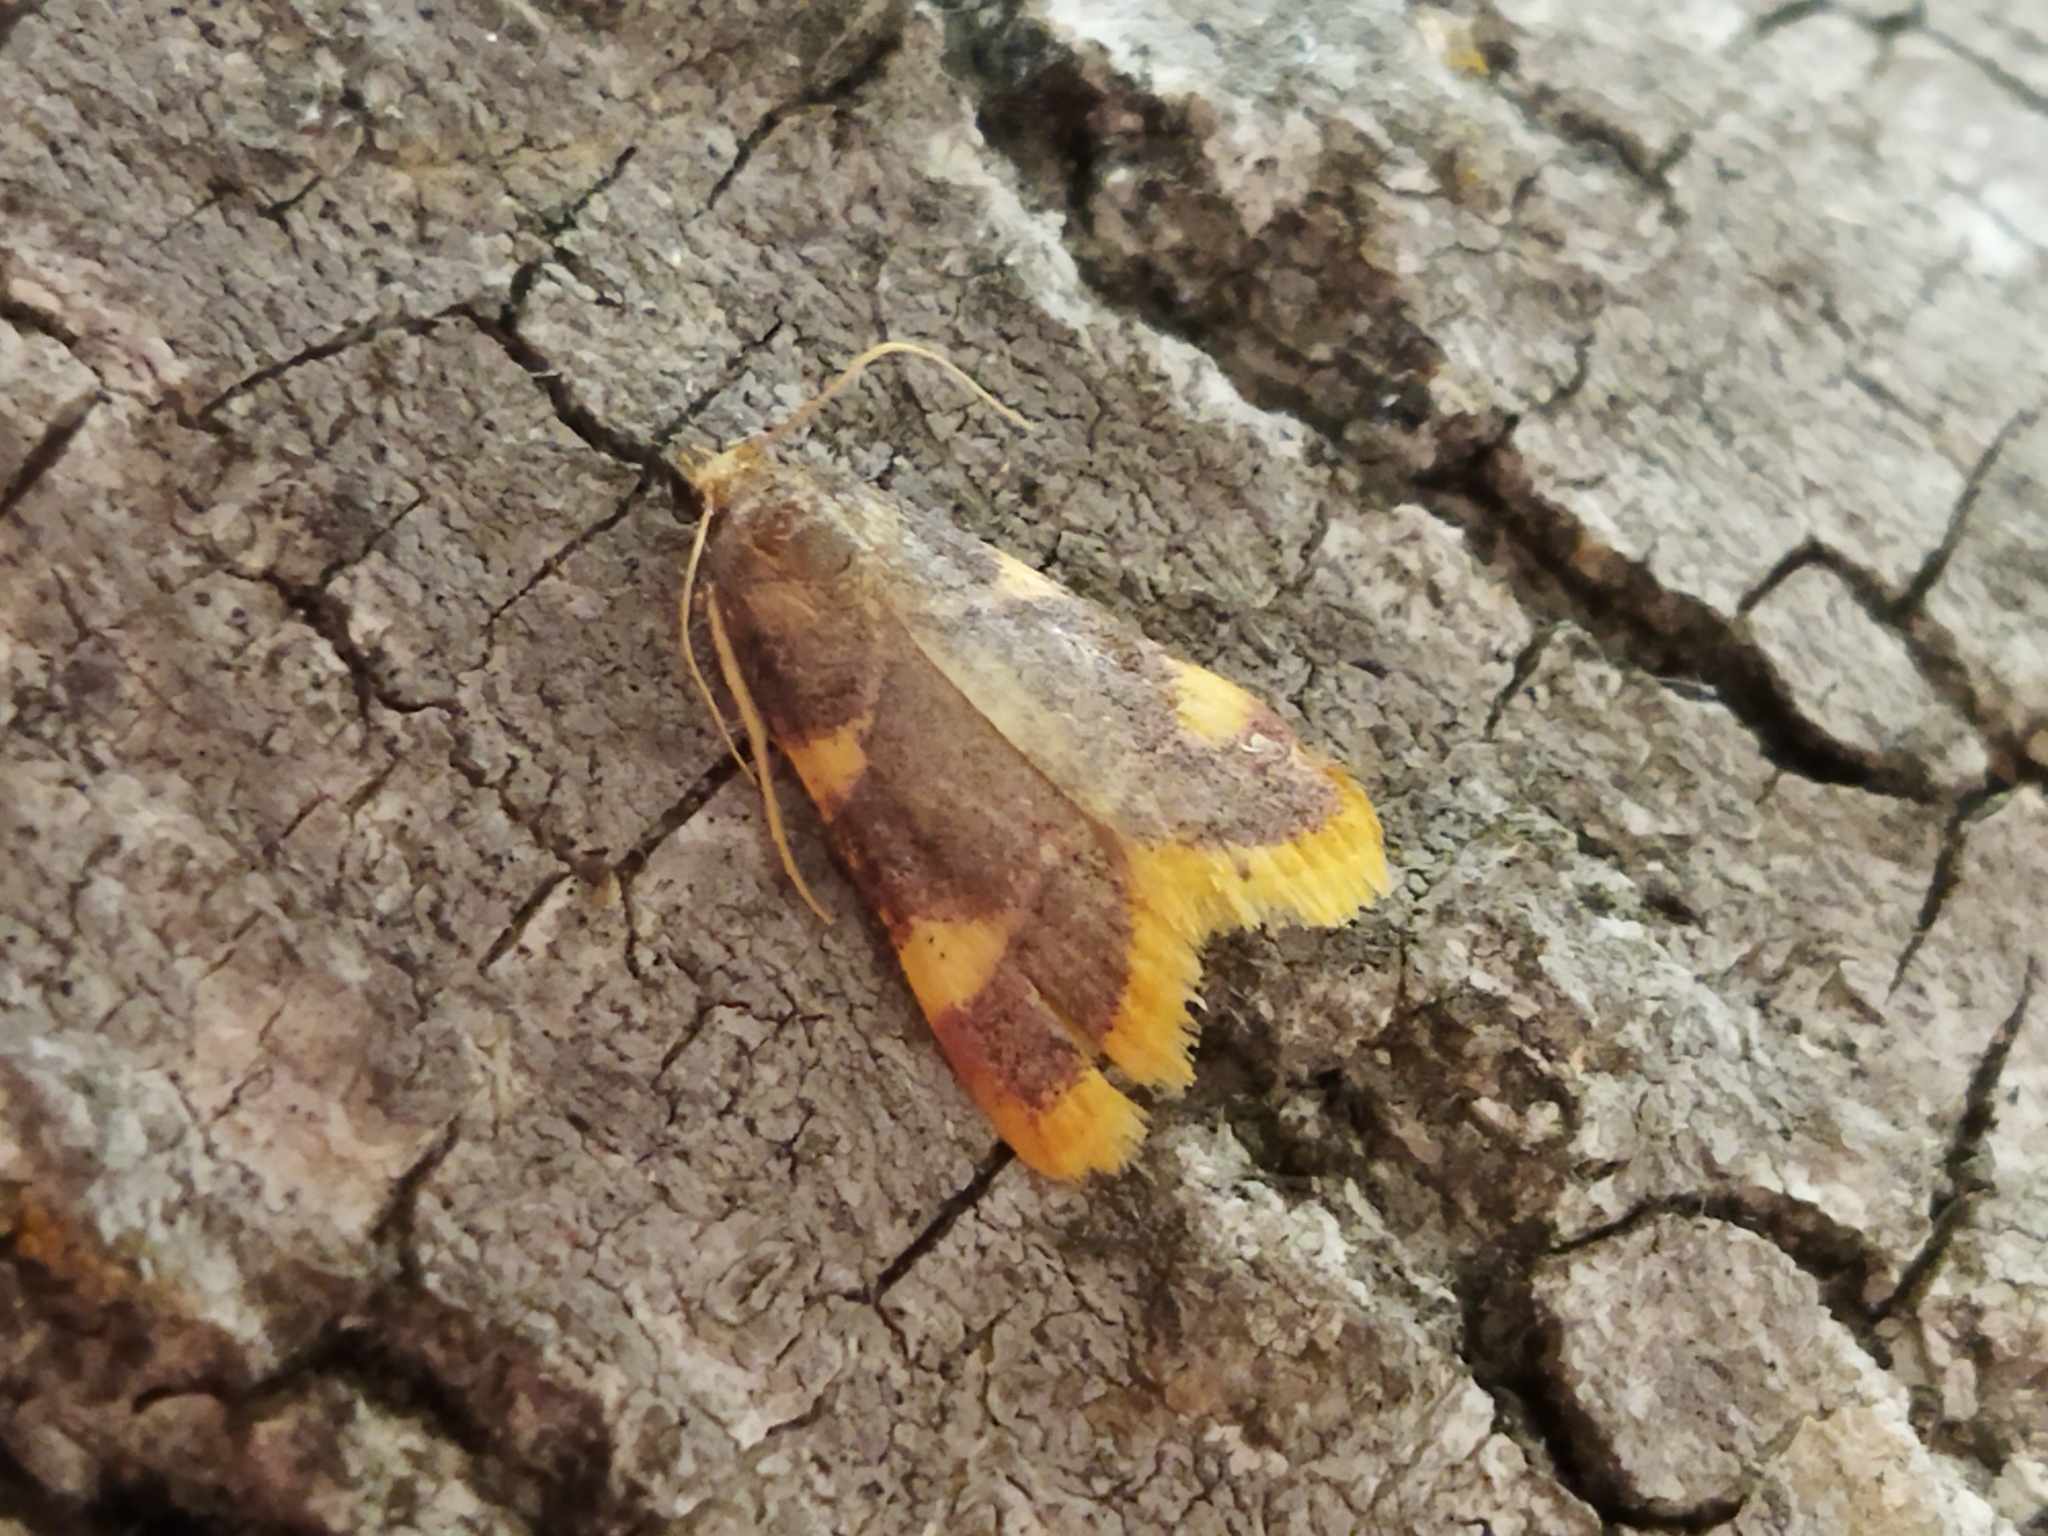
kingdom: Animalia
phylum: Arthropoda
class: Insecta
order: Lepidoptera
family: Pyralidae
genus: Hypsopygia
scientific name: Hypsopygia costalis
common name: Gold triangle
